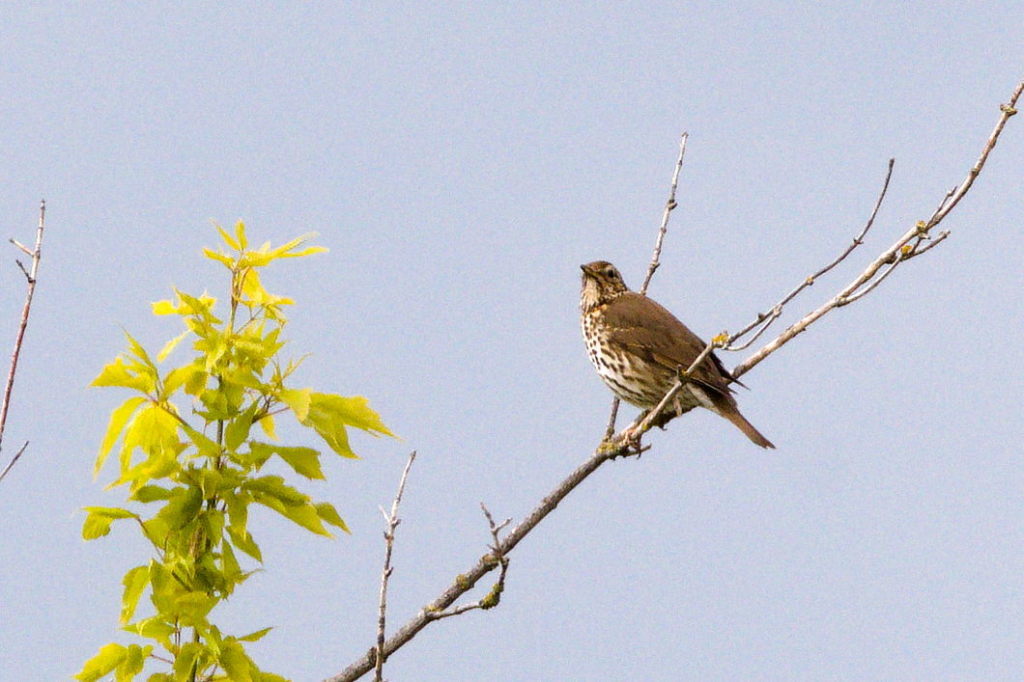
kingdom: Animalia
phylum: Chordata
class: Aves
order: Passeriformes
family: Turdidae
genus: Turdus
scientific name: Turdus philomelos
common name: Song thrush
